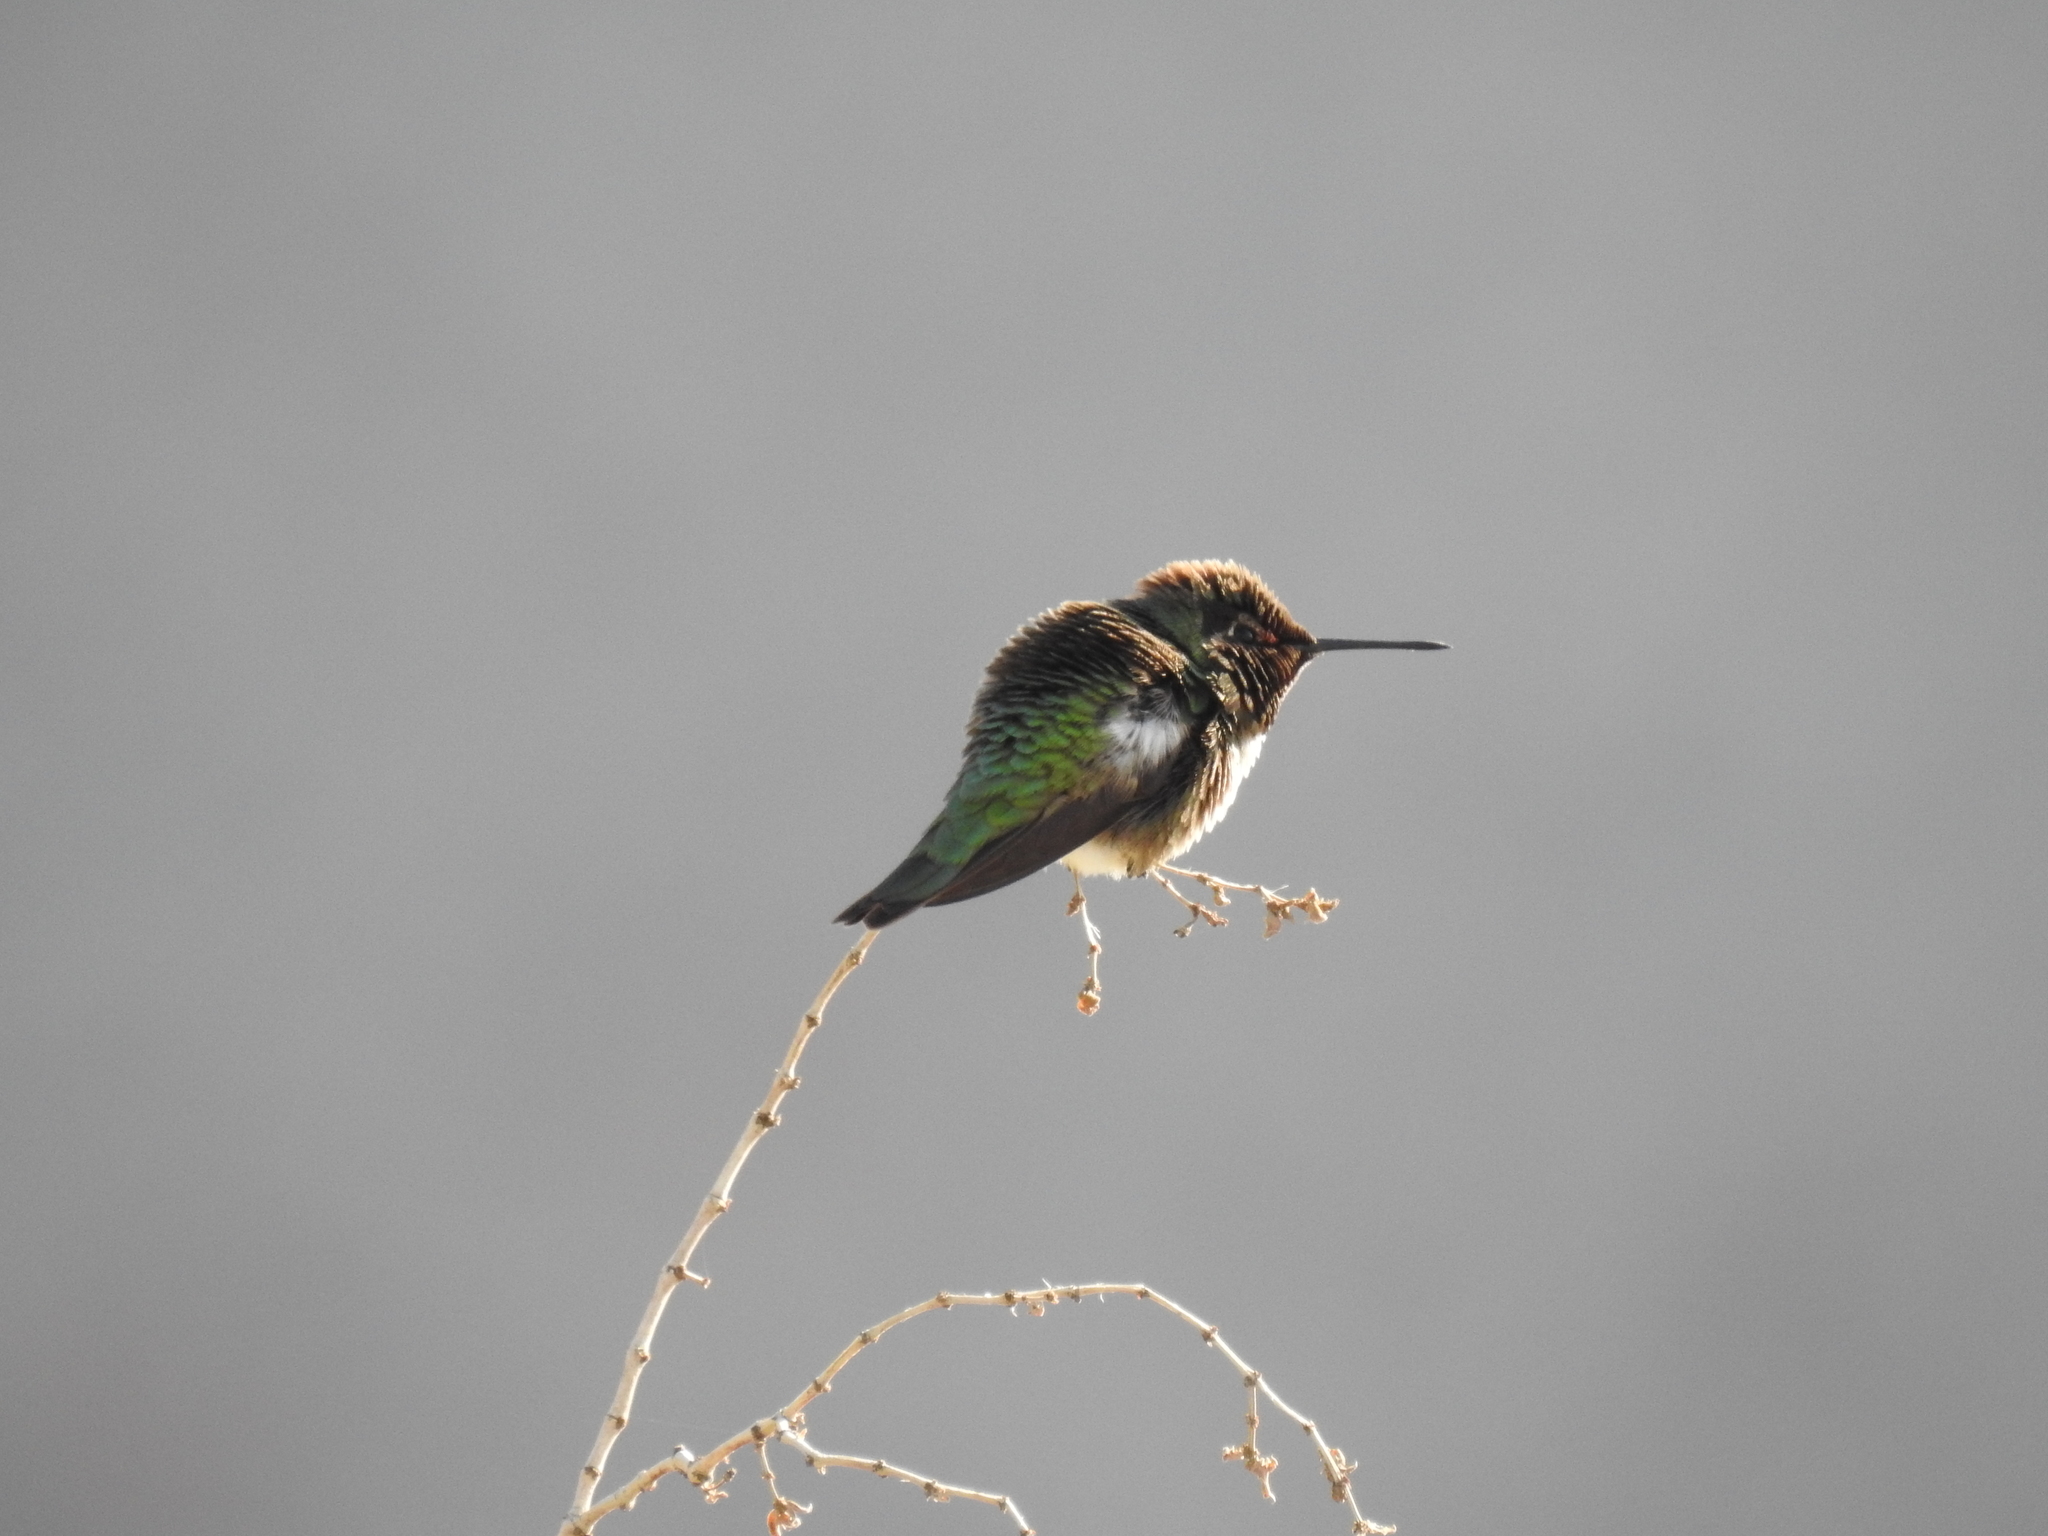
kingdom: Animalia
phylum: Chordata
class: Aves
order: Apodiformes
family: Trochilidae
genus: Calypte
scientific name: Calypte anna
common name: Anna's hummingbird
